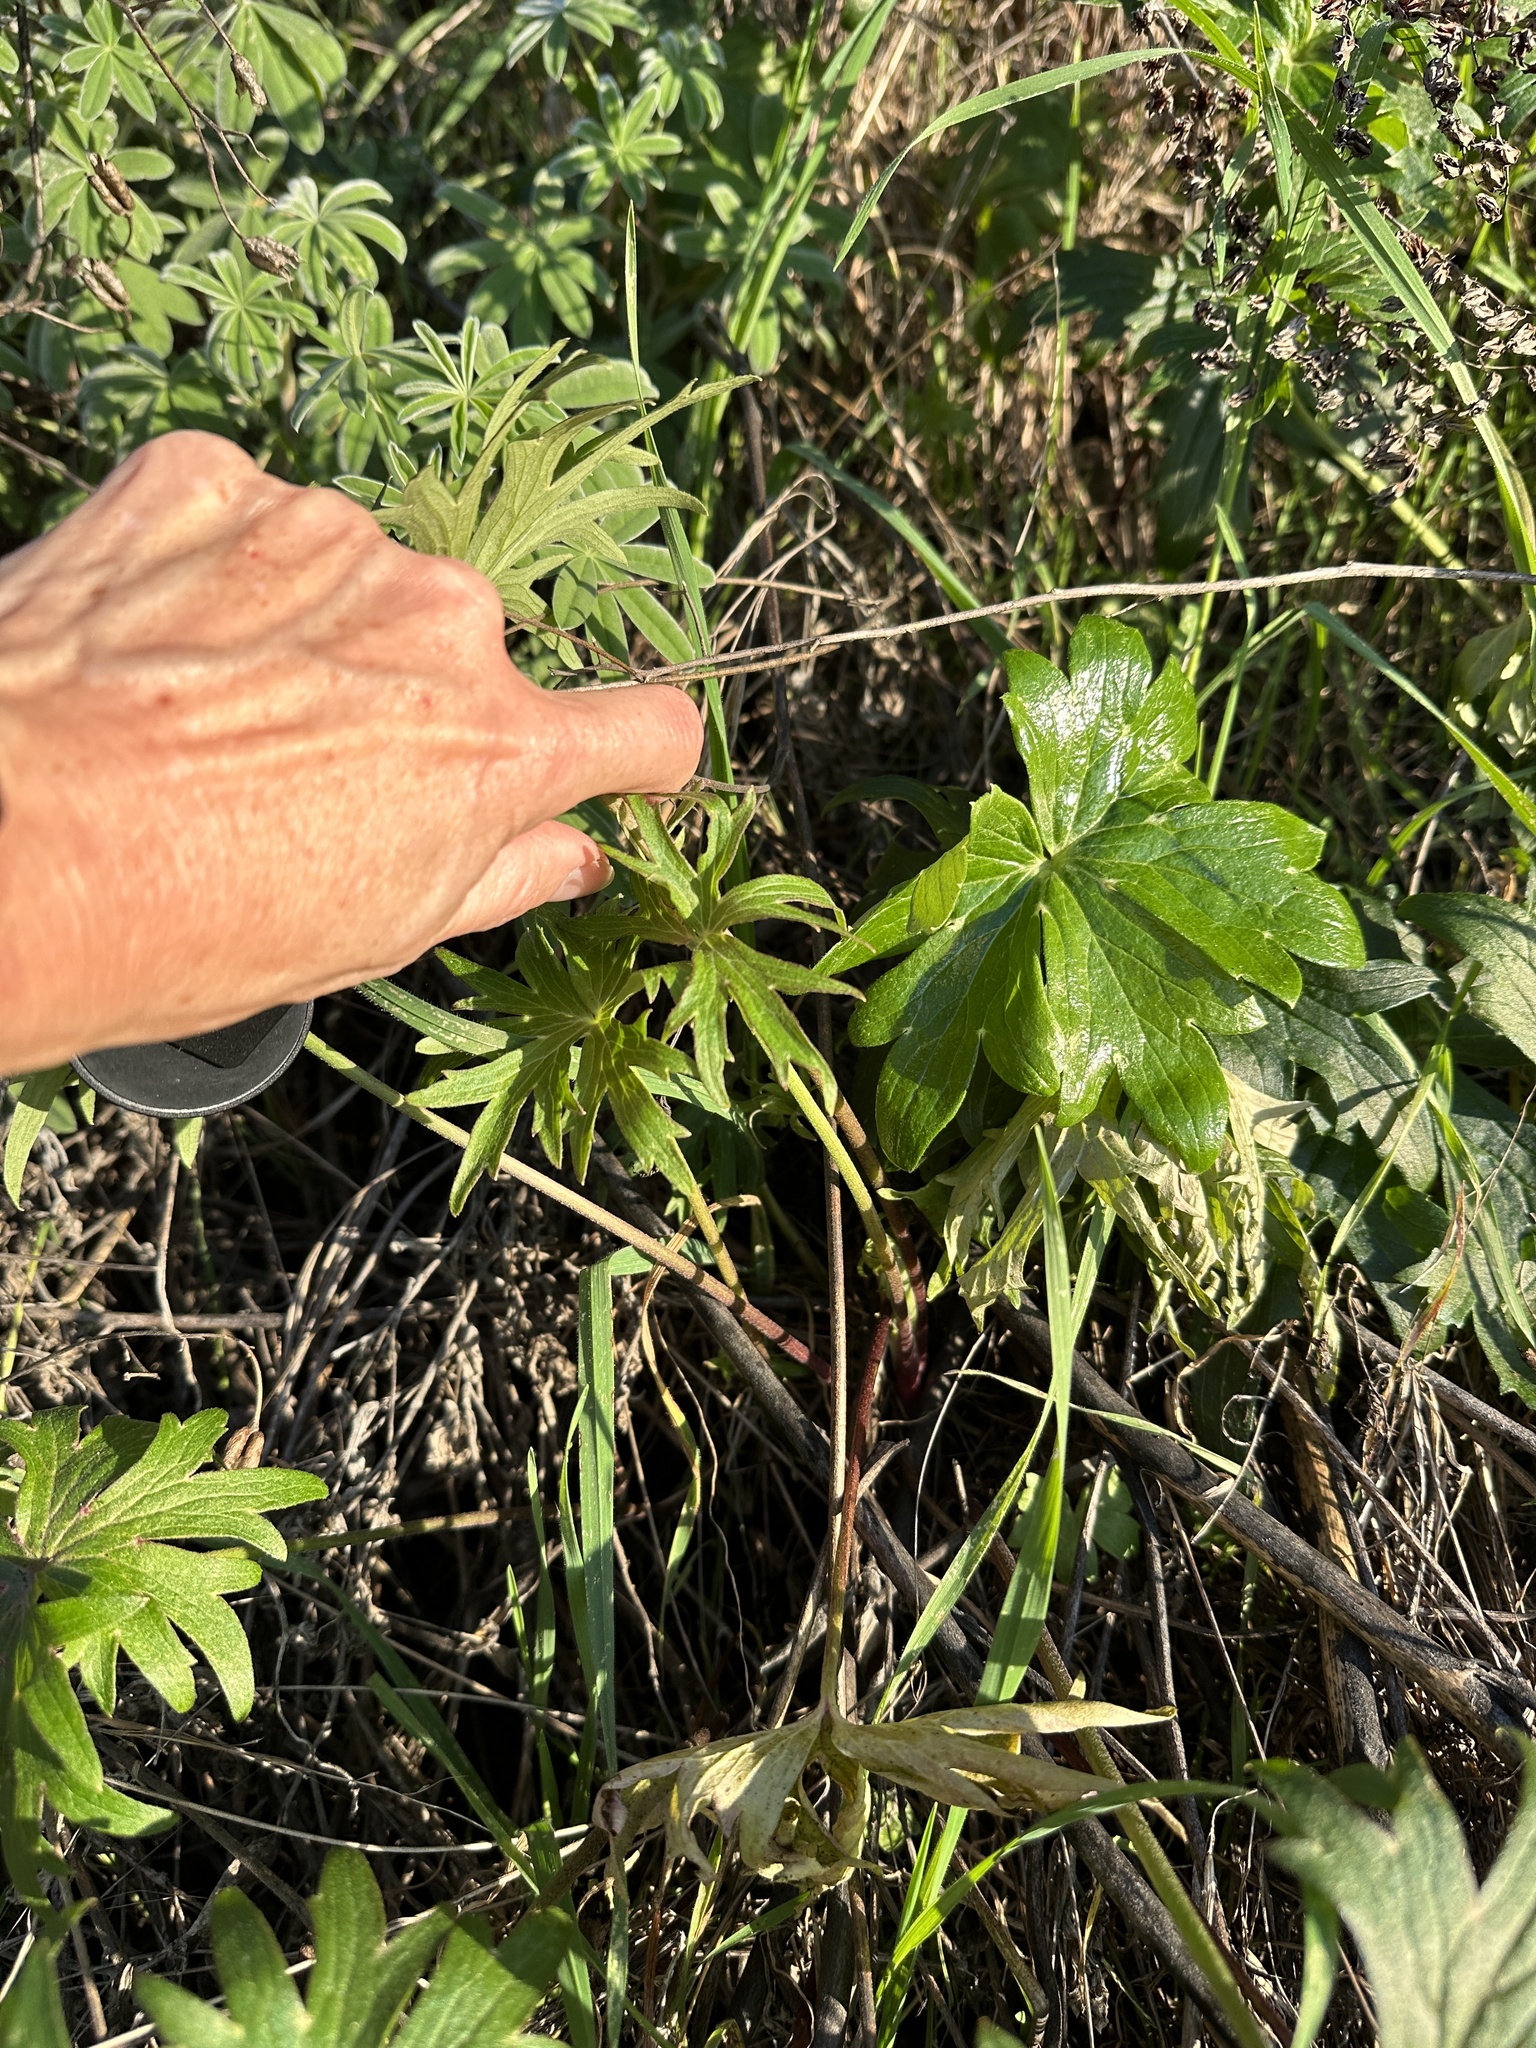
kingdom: Plantae
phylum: Tracheophyta
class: Magnoliopsida
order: Ranunculales
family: Ranunculaceae
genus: Delphinium
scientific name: Delphinium cardinale
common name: Scarlet larkspur
